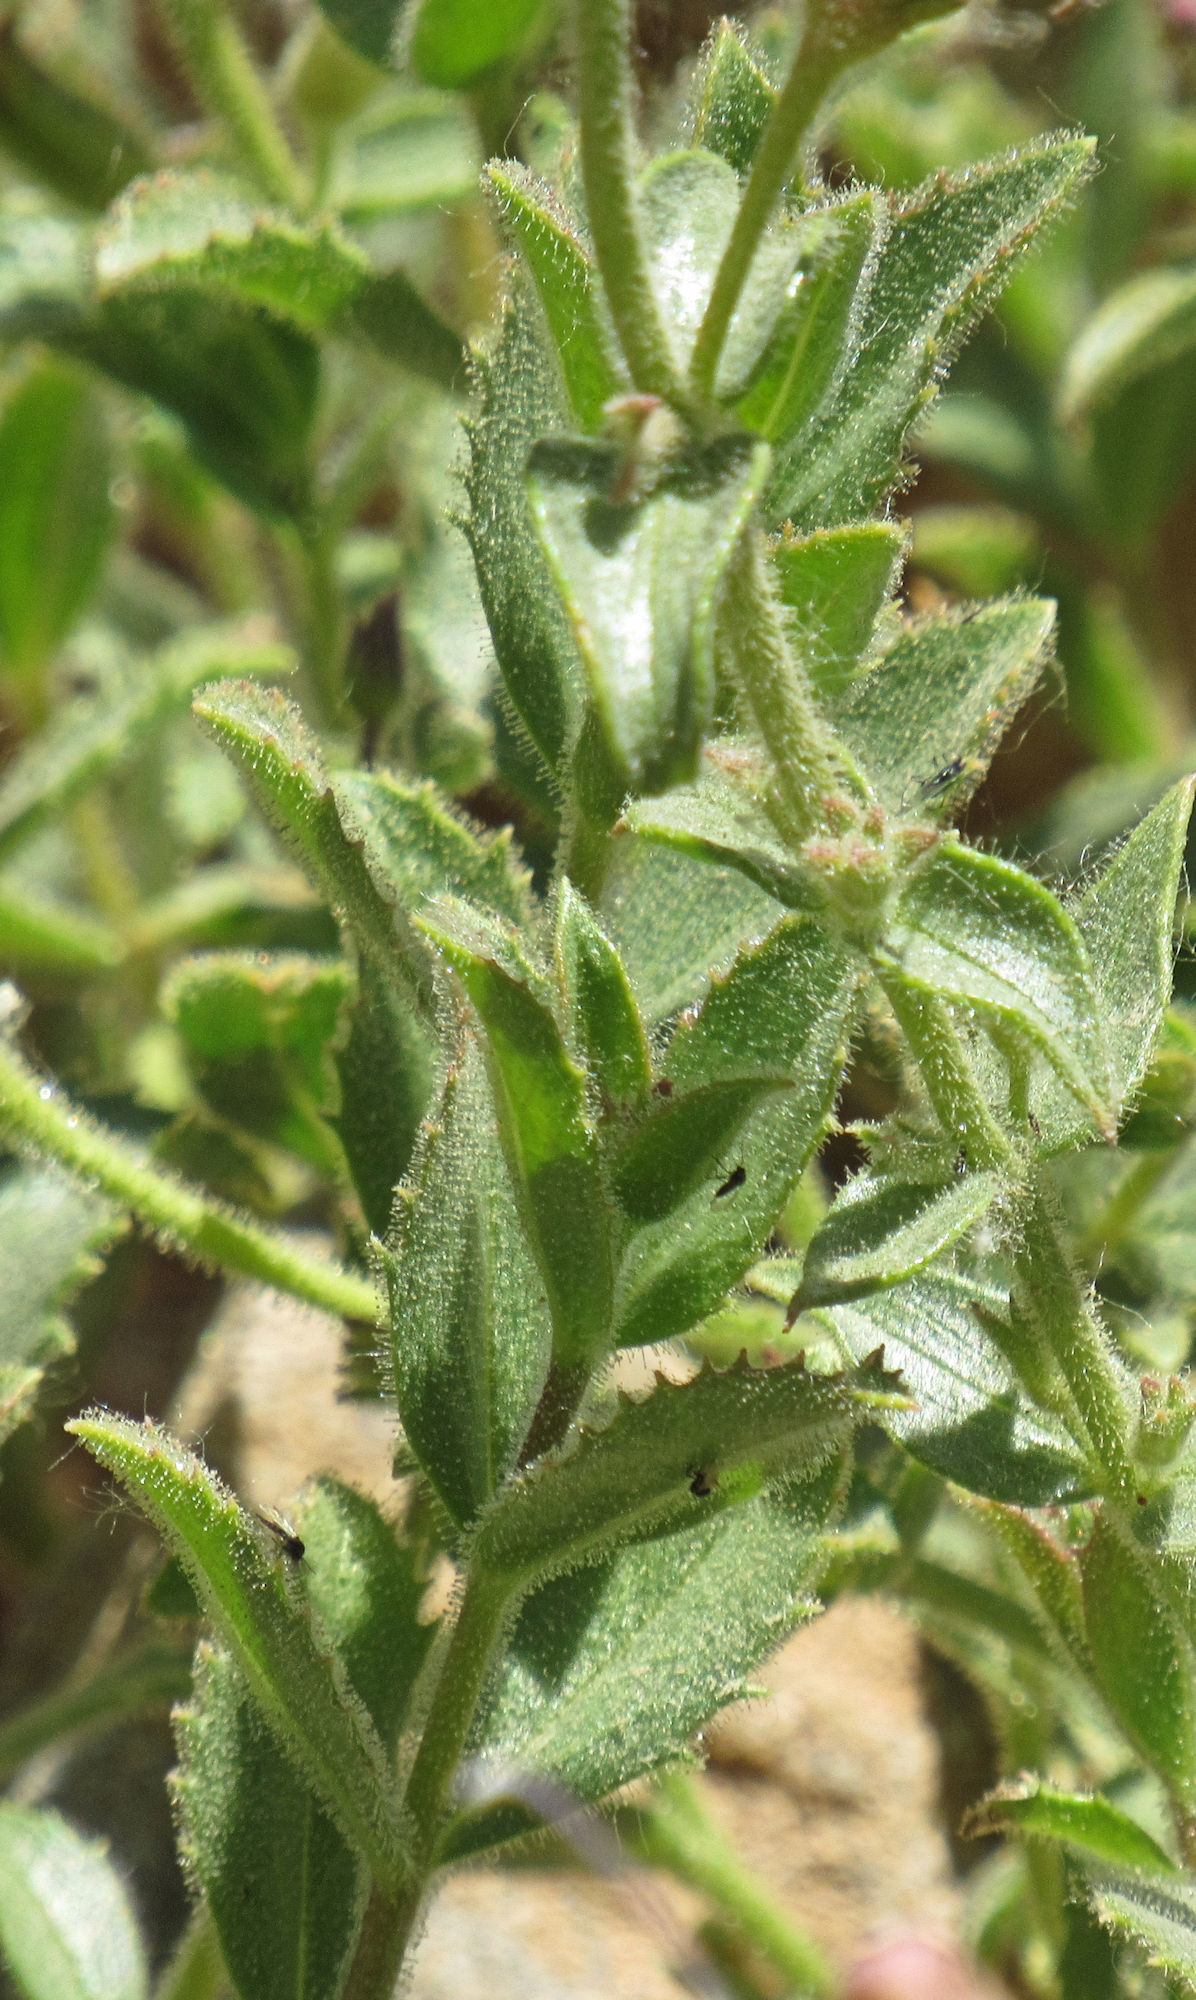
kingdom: Plantae
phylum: Tracheophyta
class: Magnoliopsida
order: Lamiales
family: Plantaginaceae
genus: Penstemon
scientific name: Penstemon montanus
